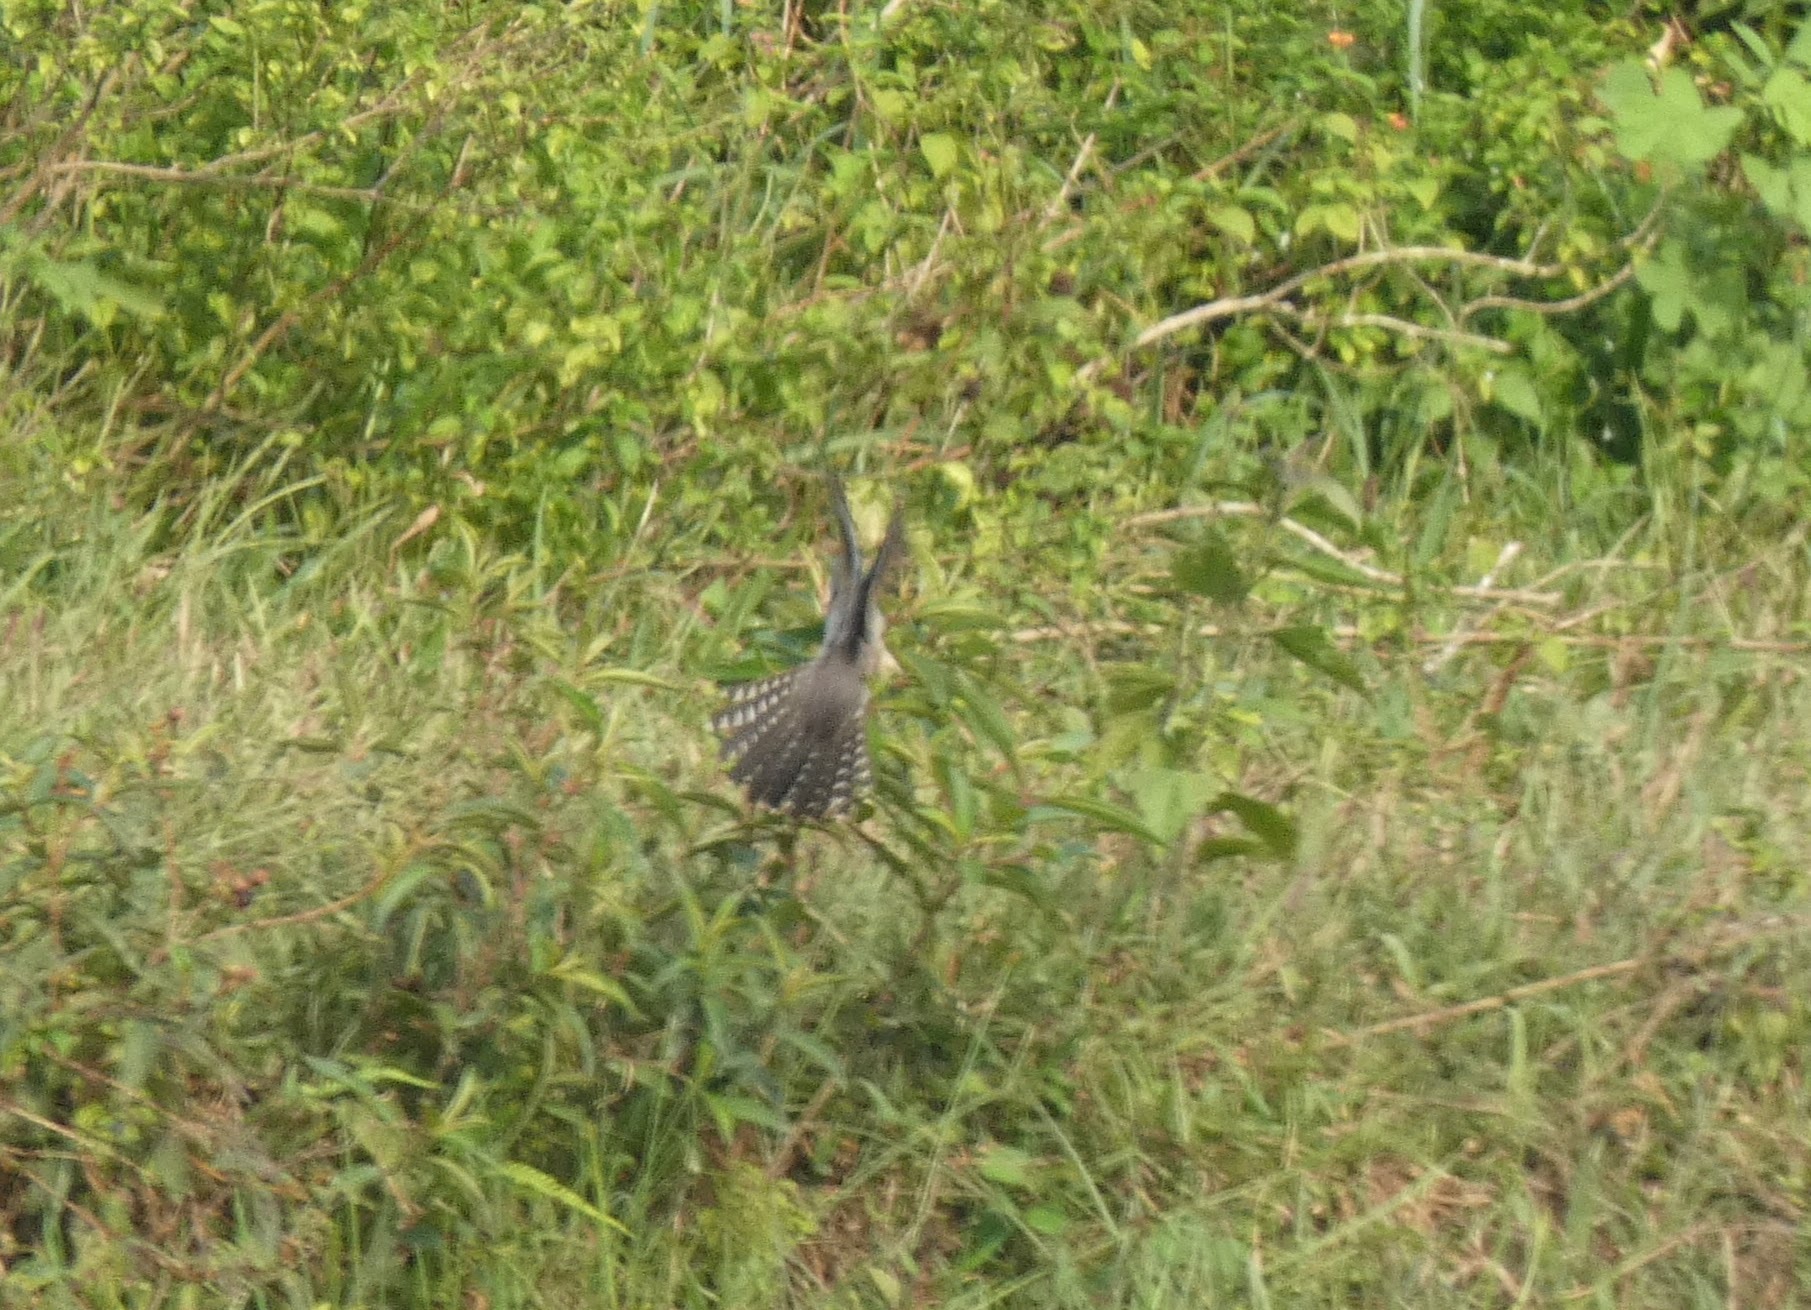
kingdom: Animalia
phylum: Chordata
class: Aves
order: Cuculiformes
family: Cuculidae
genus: Cacomantis
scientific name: Cacomantis merulinus
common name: Plaintive cuckoo
